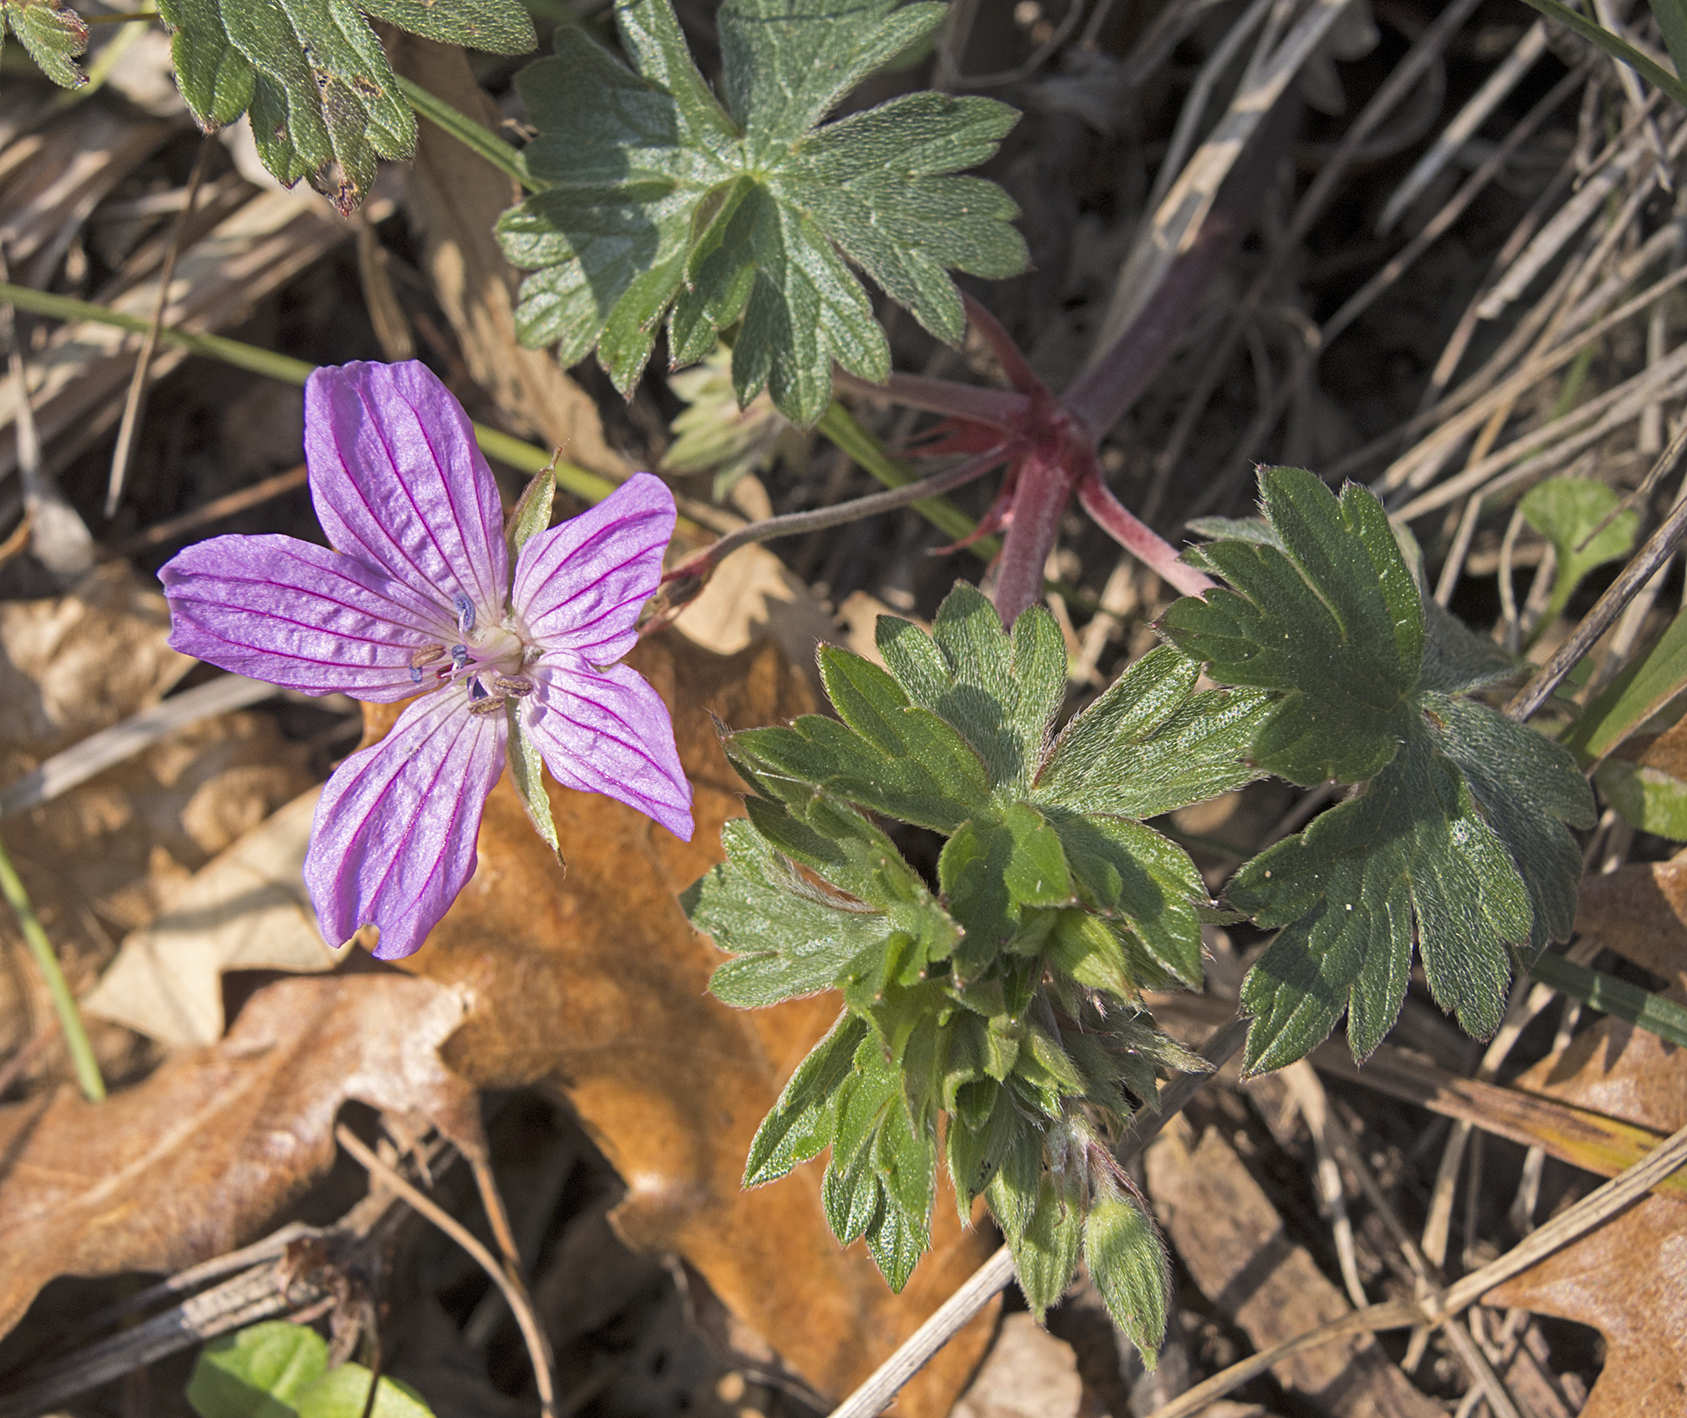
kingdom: Plantae
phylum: Tracheophyta
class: Magnoliopsida
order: Geraniales
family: Geraniaceae
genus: Geranium
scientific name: Geranium asphodeloides
